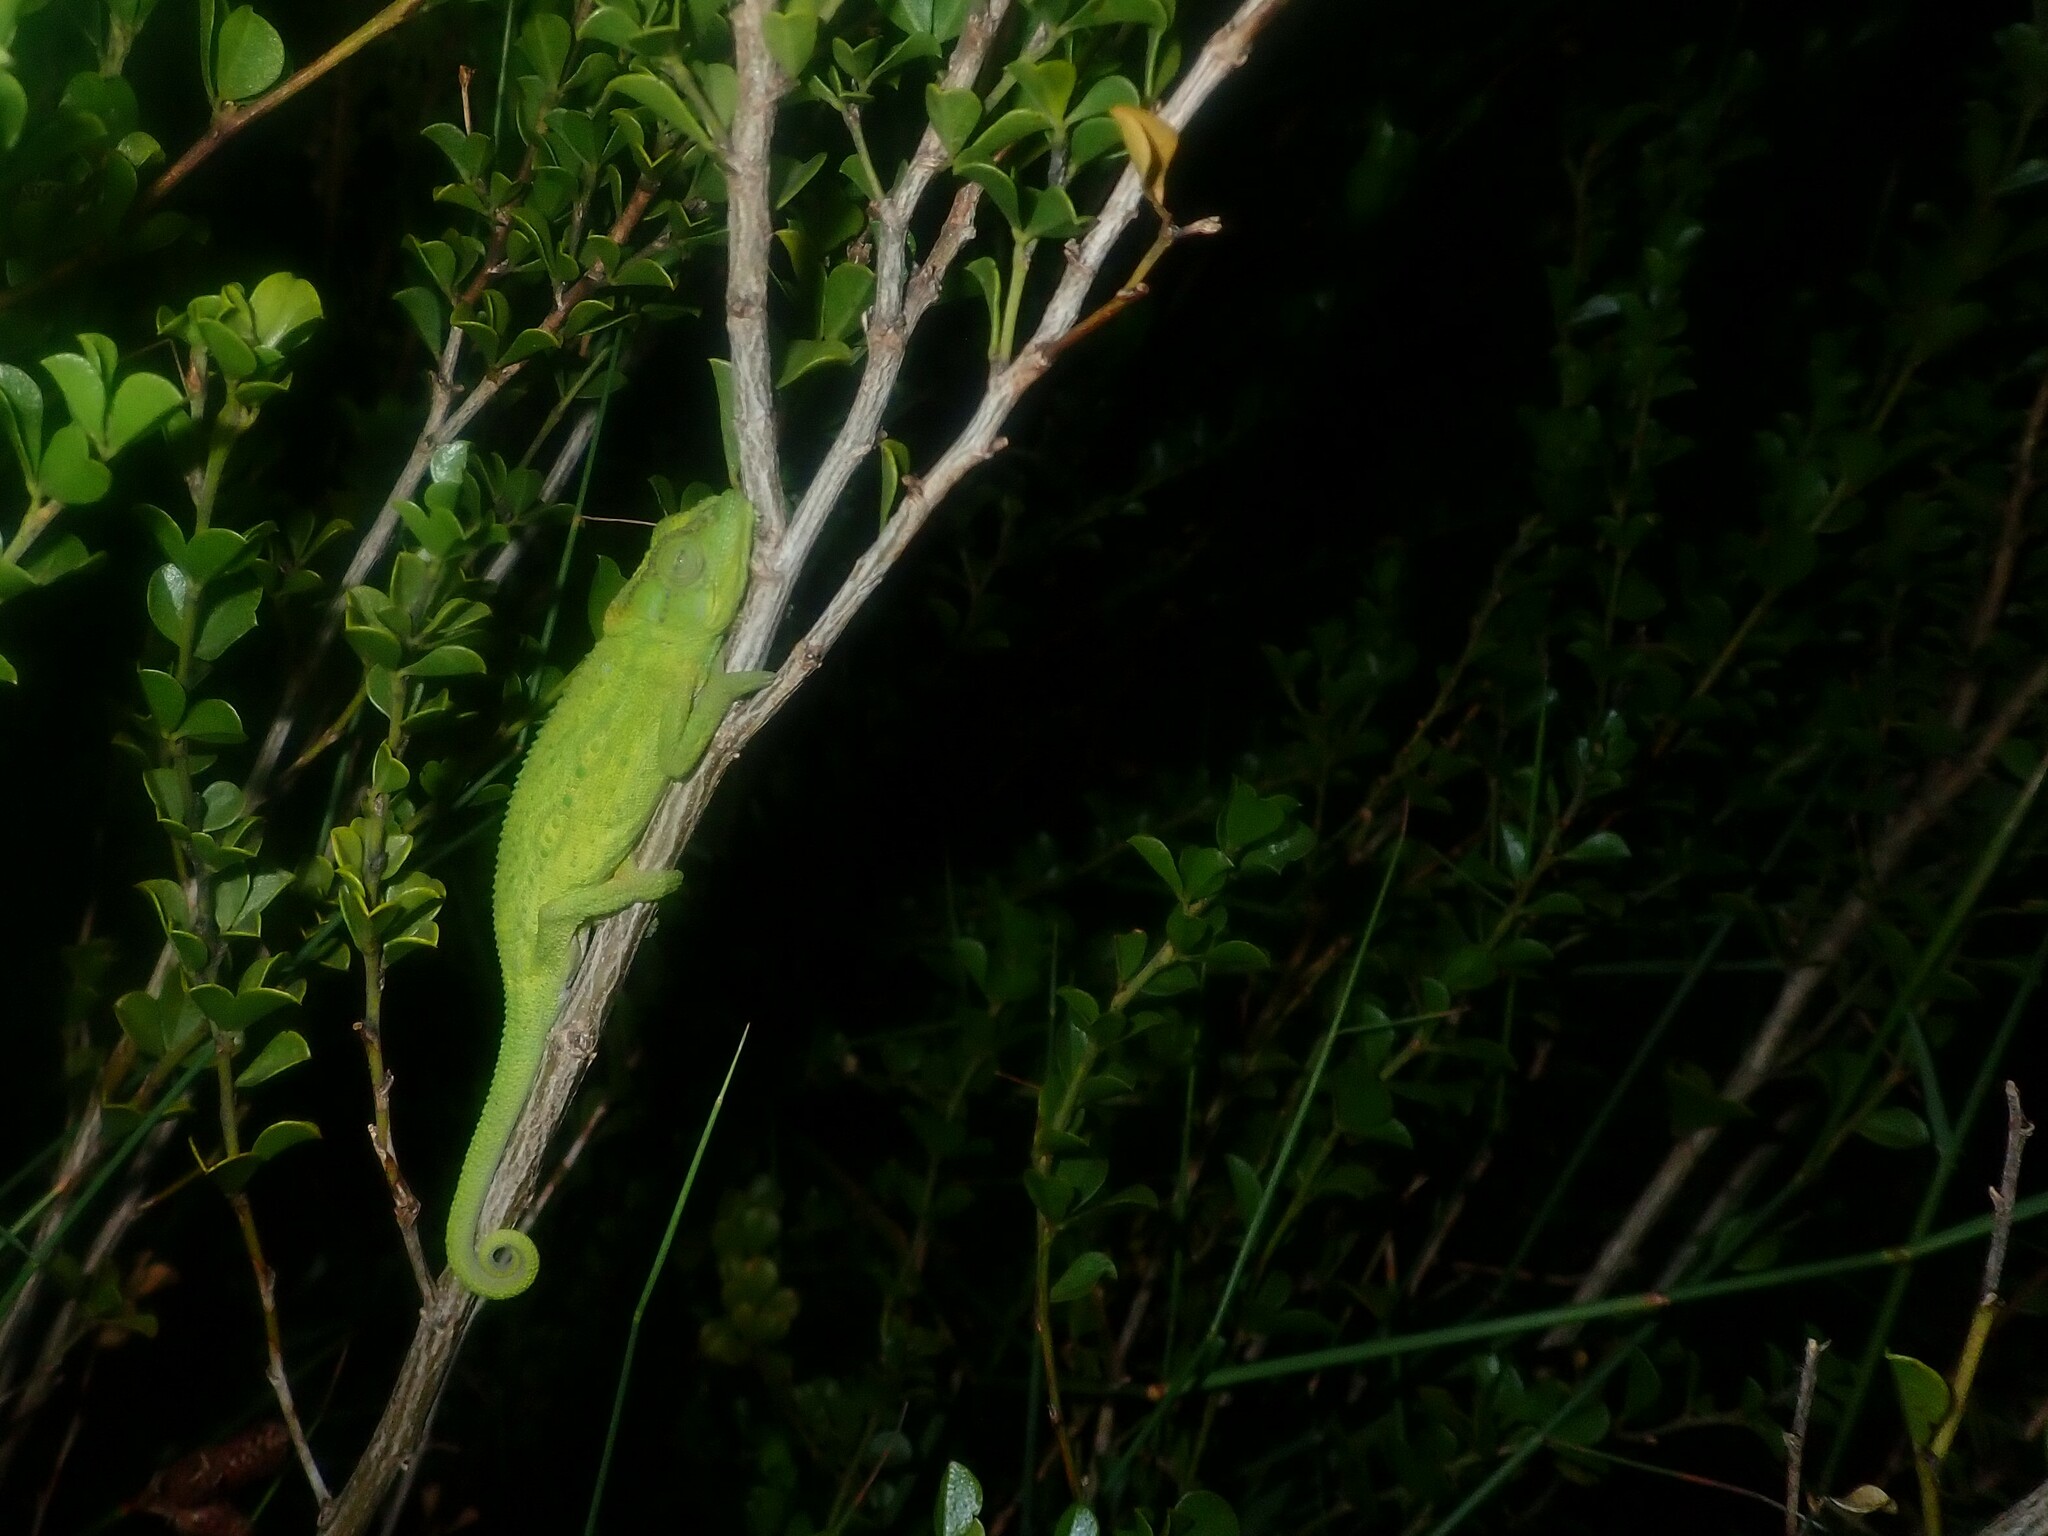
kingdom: Animalia
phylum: Chordata
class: Squamata
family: Chamaeleonidae
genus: Bradypodion
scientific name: Bradypodion pumilum
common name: Cape dwarf chameleon
